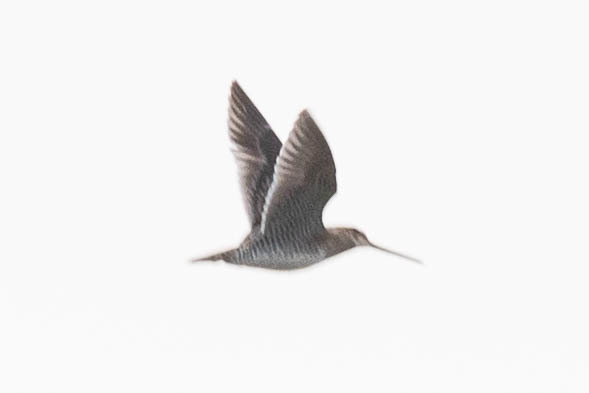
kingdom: Animalia
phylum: Chordata
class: Aves
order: Charadriiformes
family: Scolopacidae
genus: Gallinago
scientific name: Gallinago delicata
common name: Wilson's snipe
